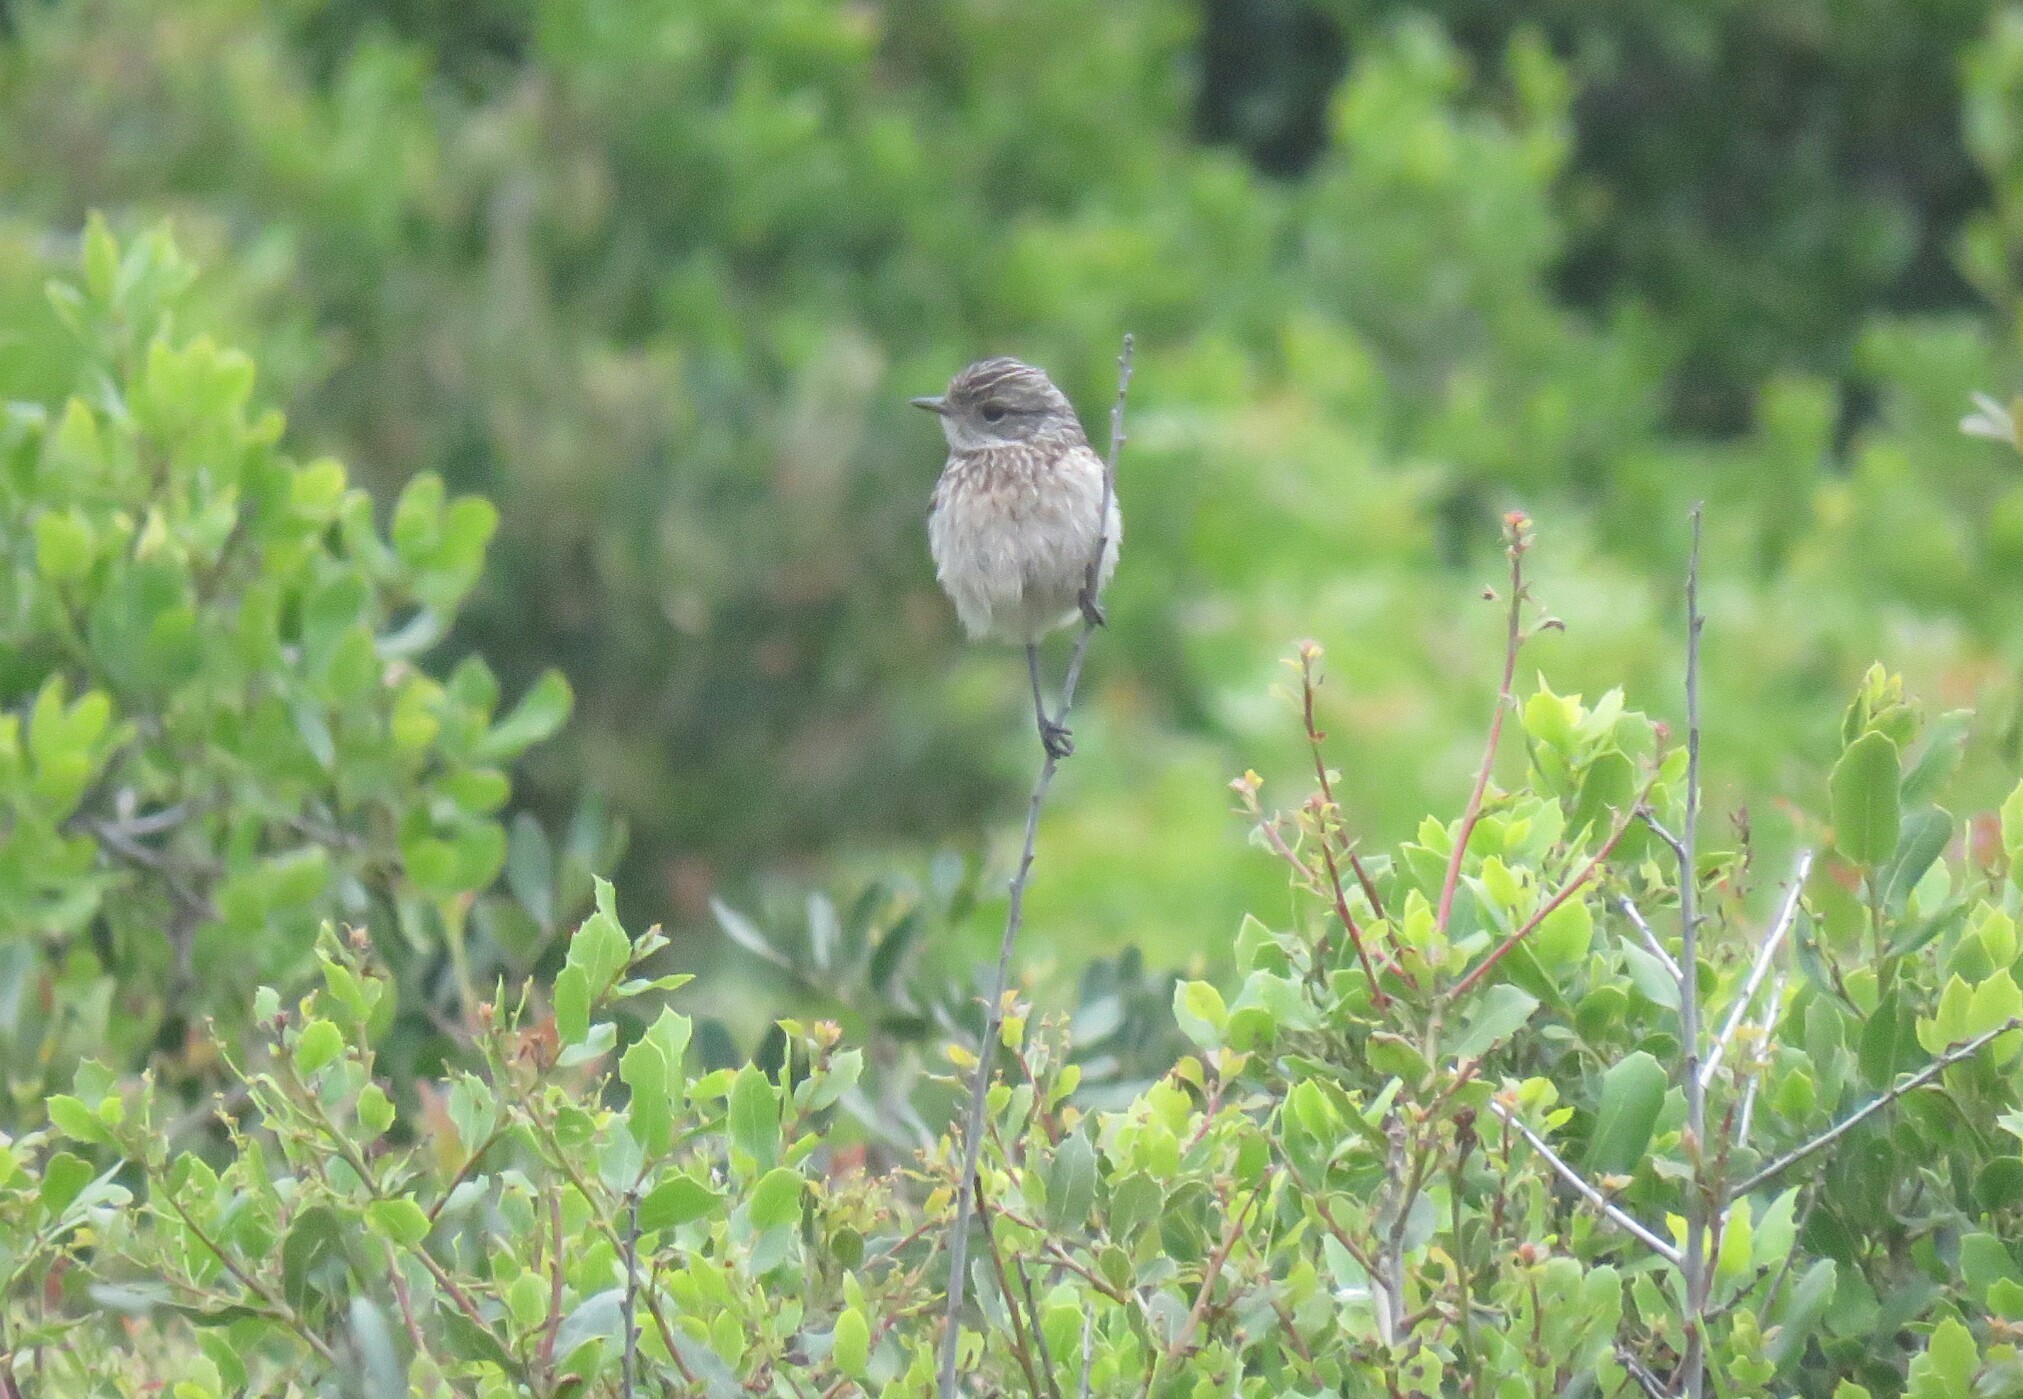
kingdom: Animalia
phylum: Chordata
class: Aves
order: Passeriformes
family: Muscicapidae
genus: Saxicola
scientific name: Saxicola rubicola
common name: European stonechat
